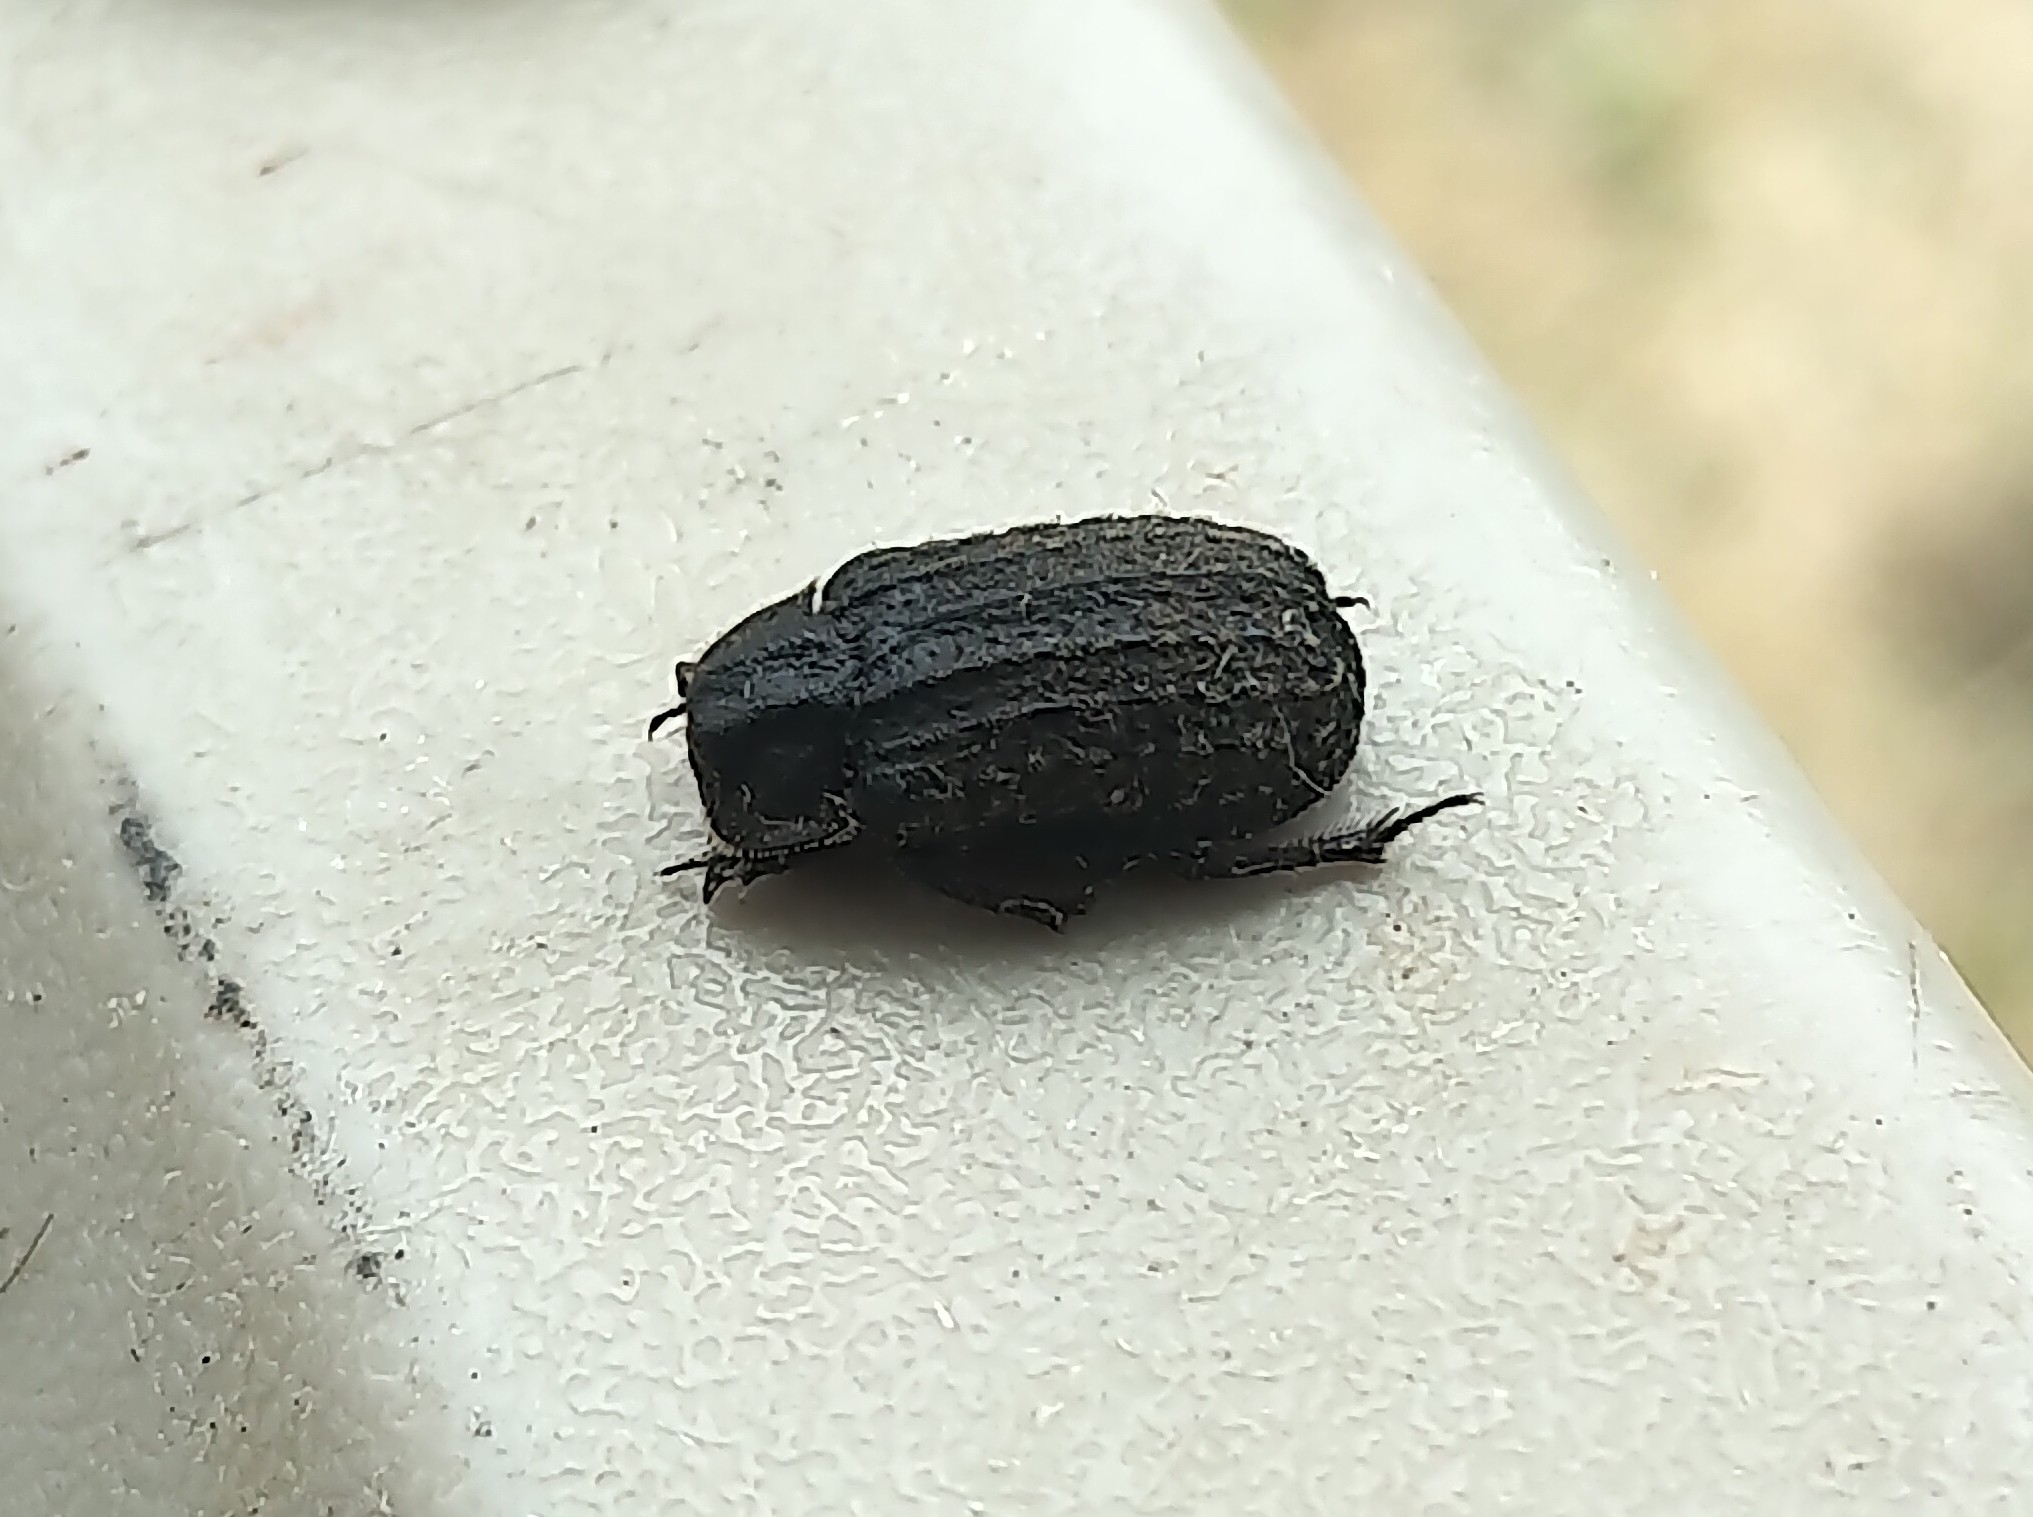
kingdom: Animalia
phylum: Arthropoda
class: Insecta
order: Coleoptera
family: Trogidae
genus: Trox
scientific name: Trox unistriatus
